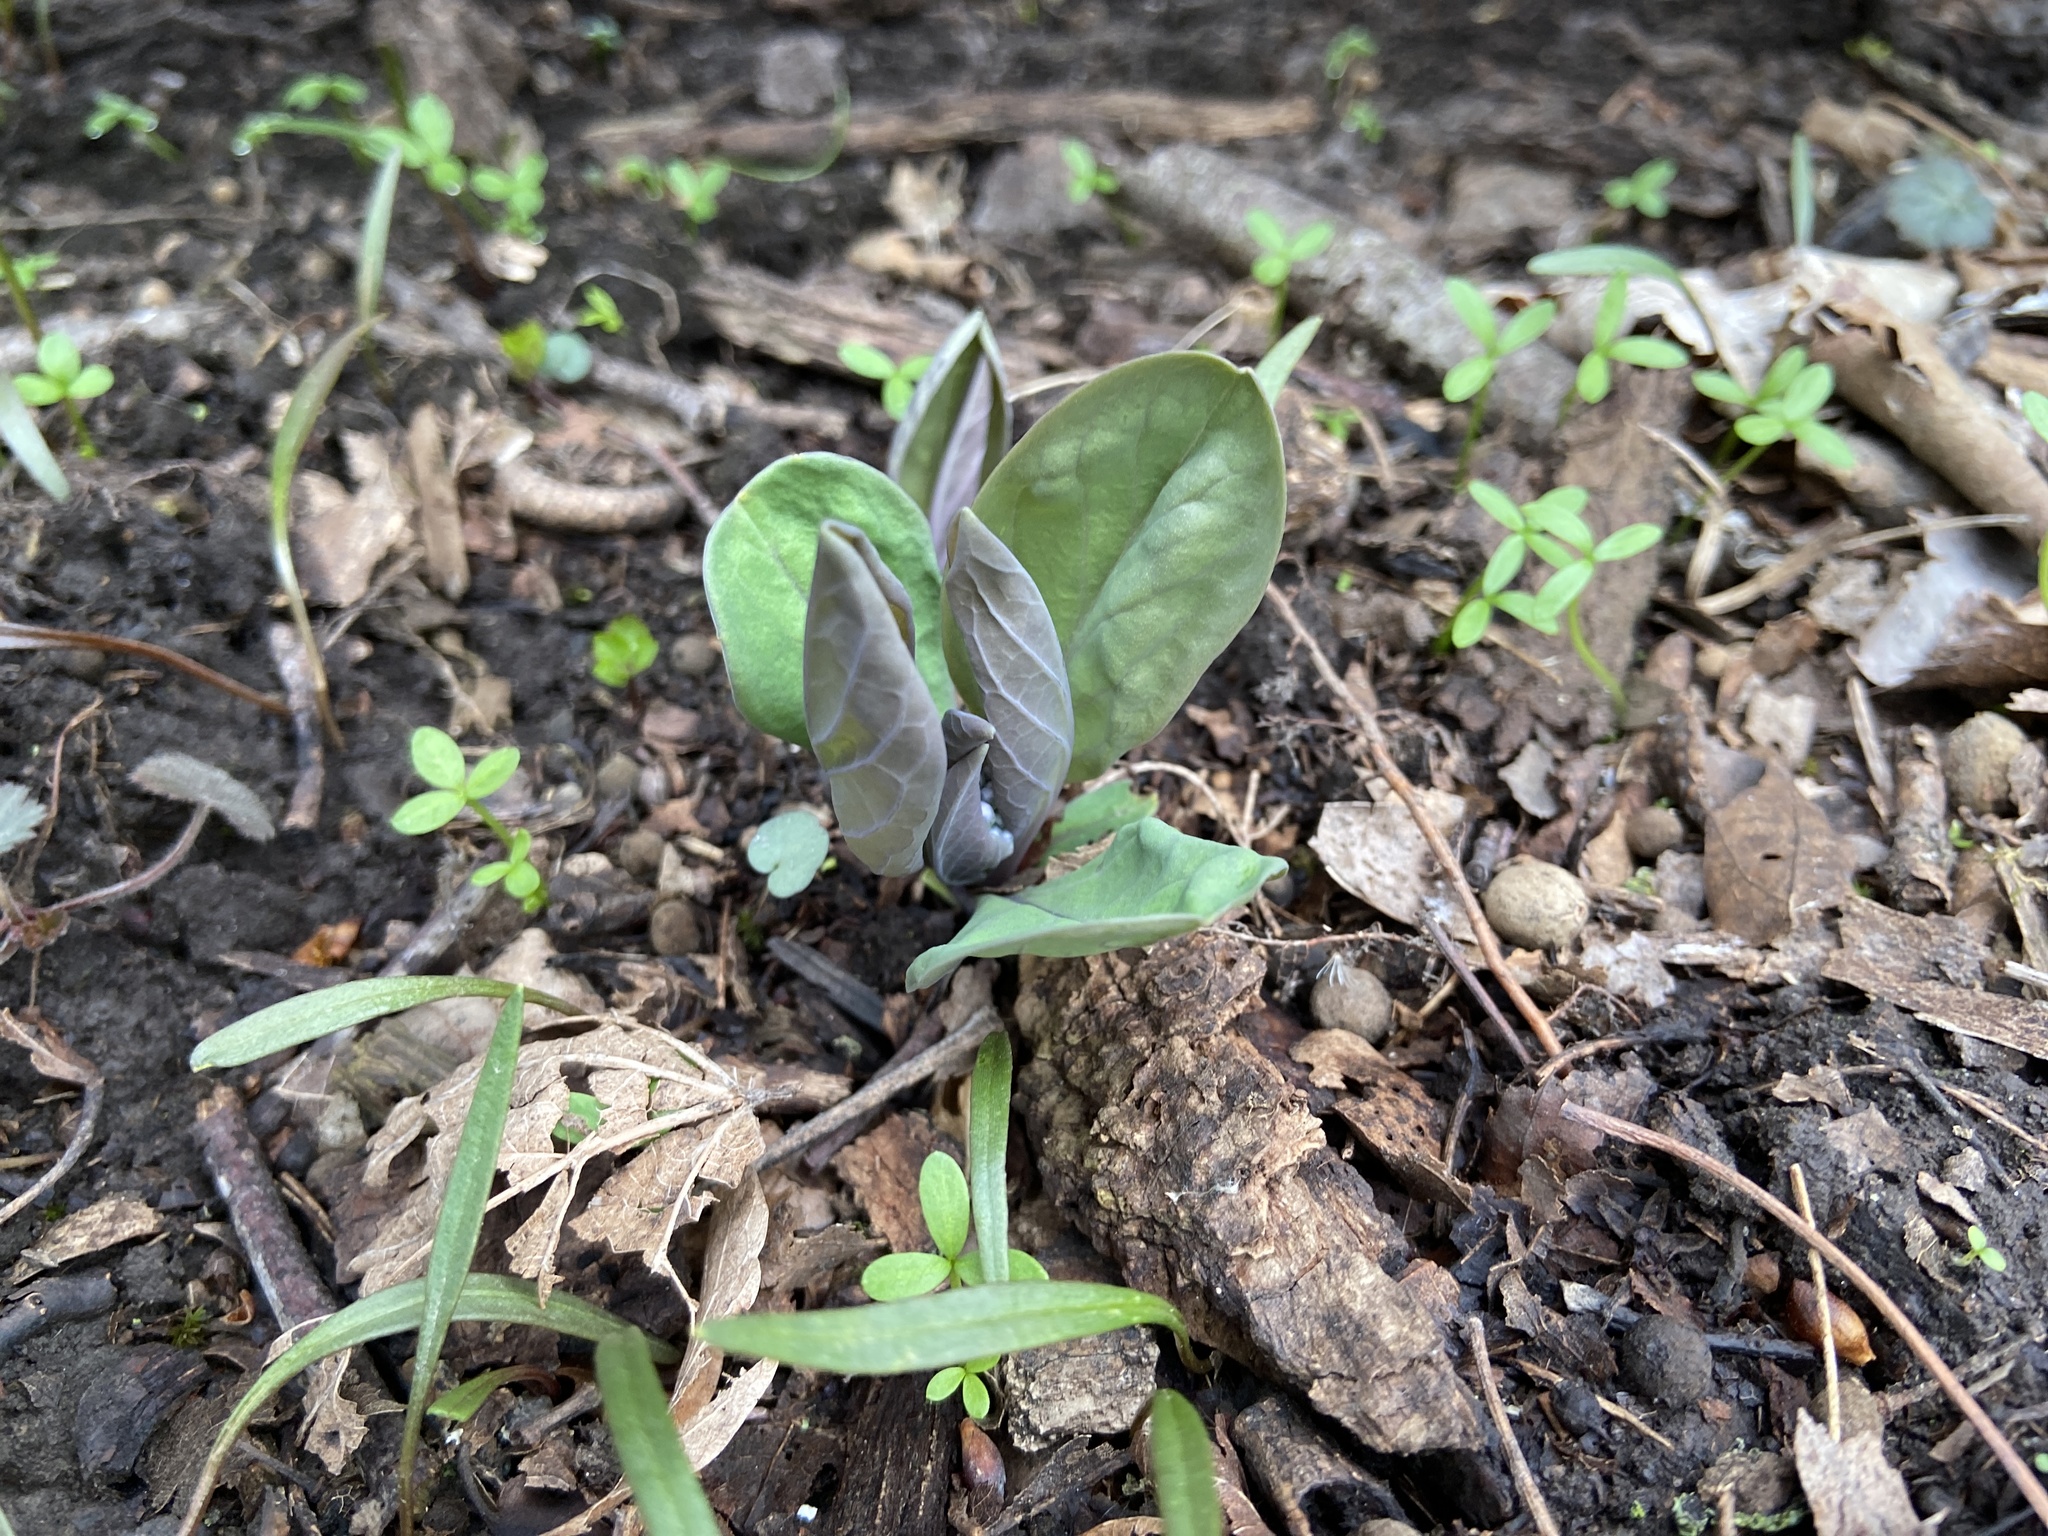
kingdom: Plantae
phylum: Tracheophyta
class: Magnoliopsida
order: Boraginales
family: Boraginaceae
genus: Mertensia
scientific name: Mertensia virginica
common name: Virginia bluebells
